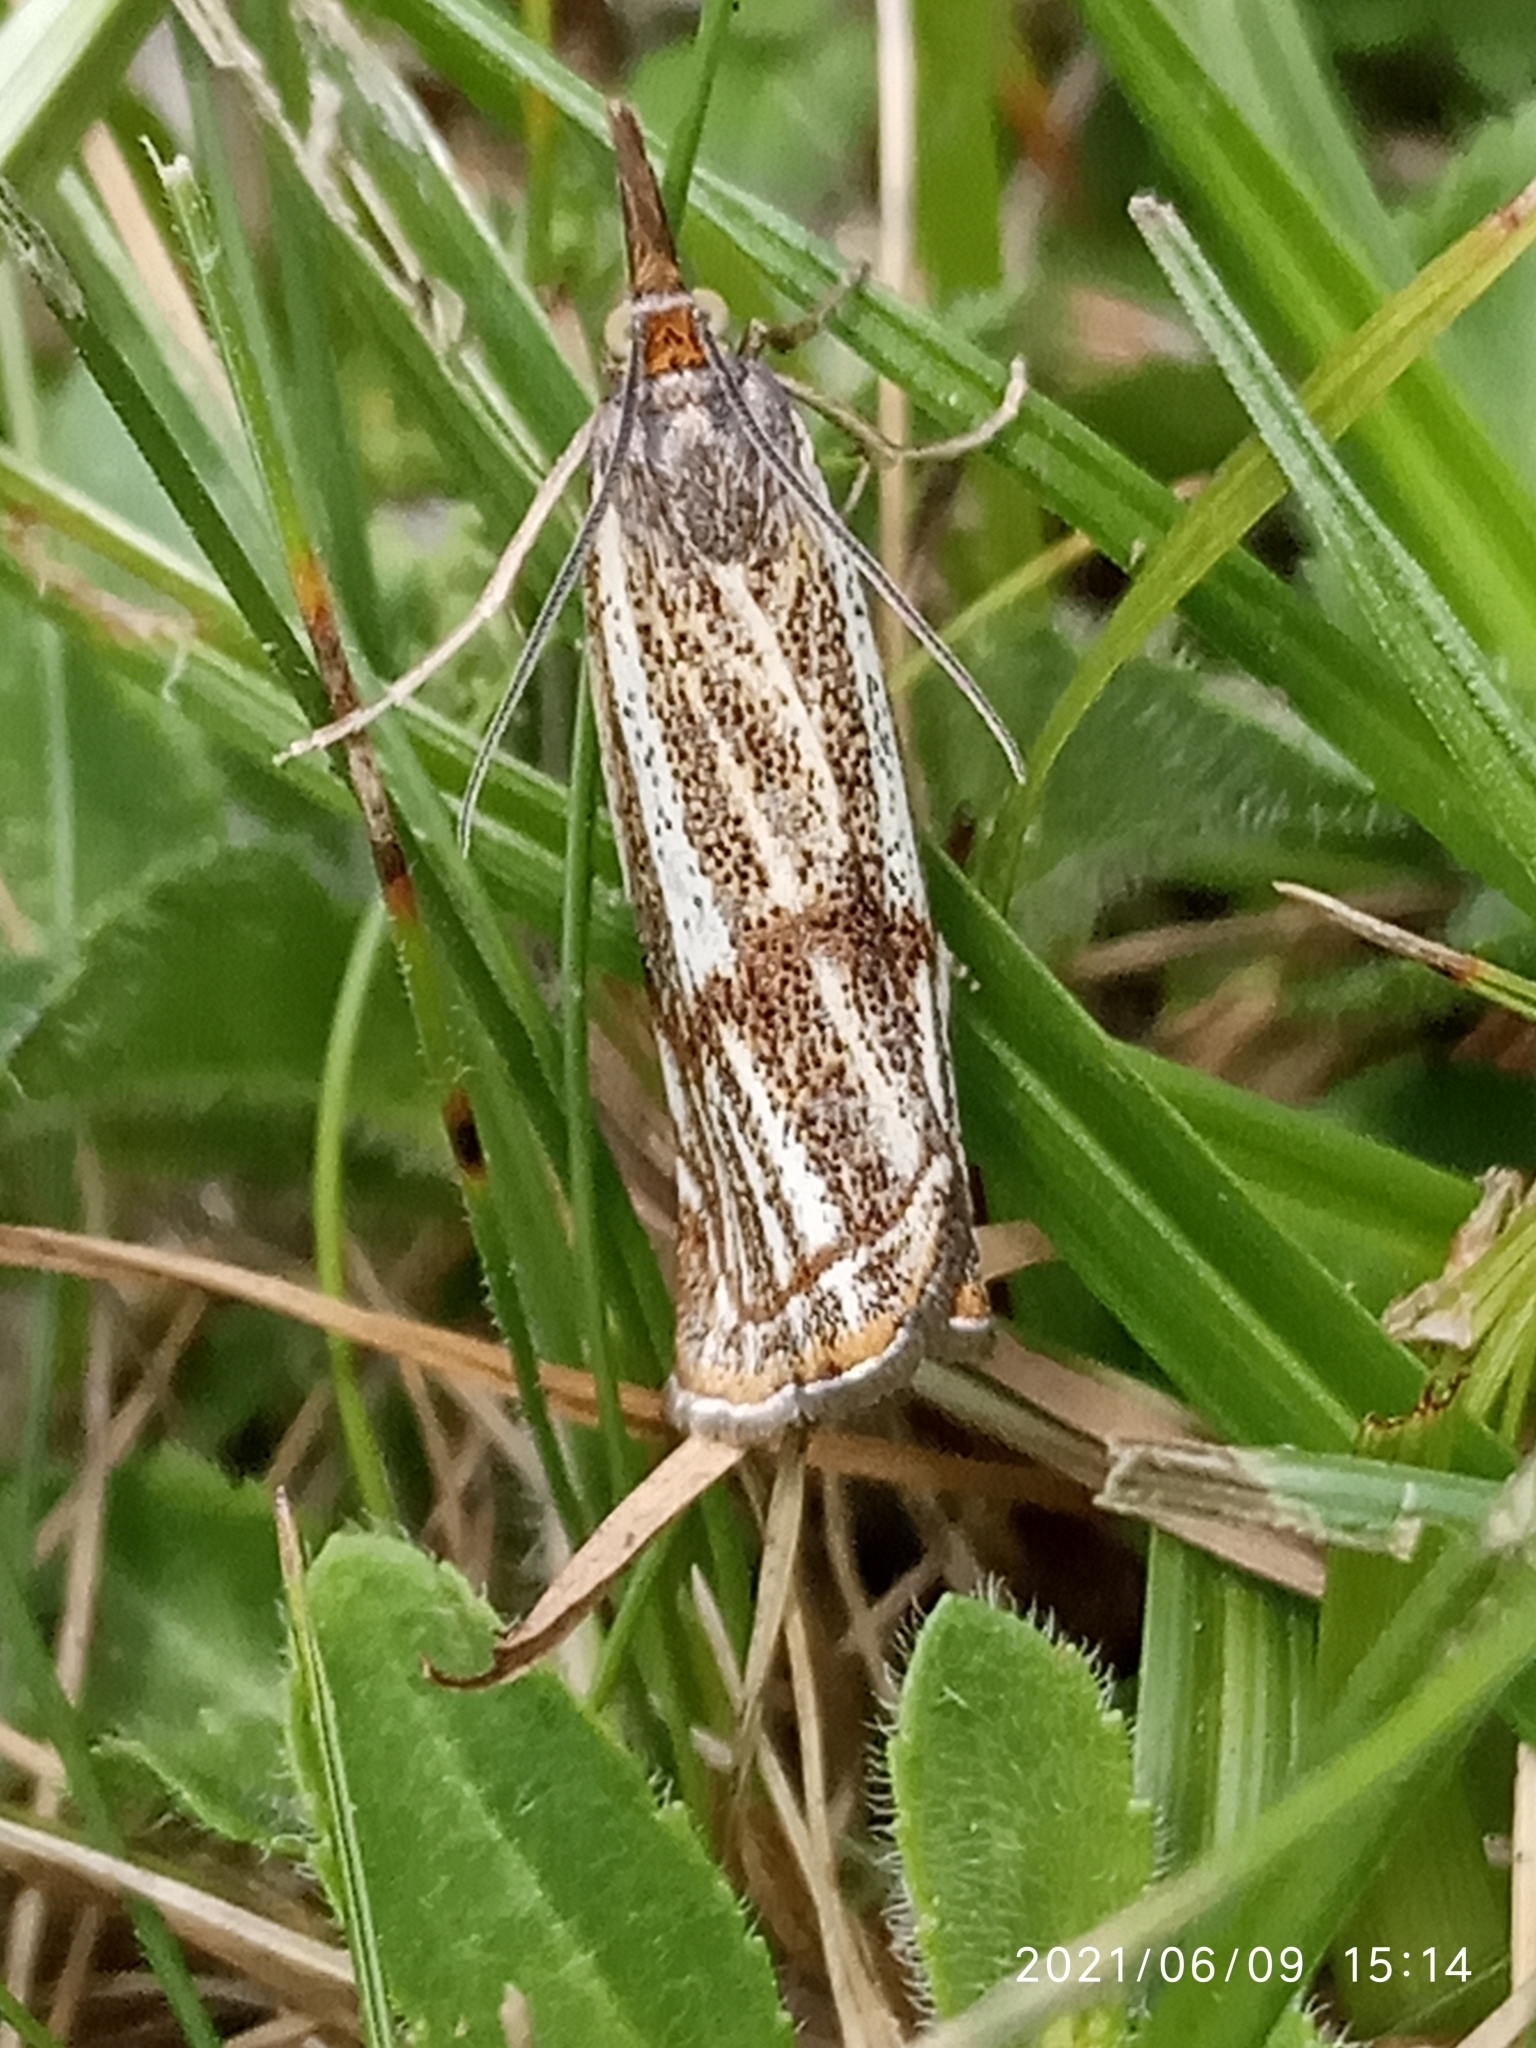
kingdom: Animalia
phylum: Arthropoda
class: Insecta
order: Lepidoptera
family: Crambidae
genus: Thisanotia
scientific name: Thisanotia chrysonuchella
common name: Powdered grass-veneer
